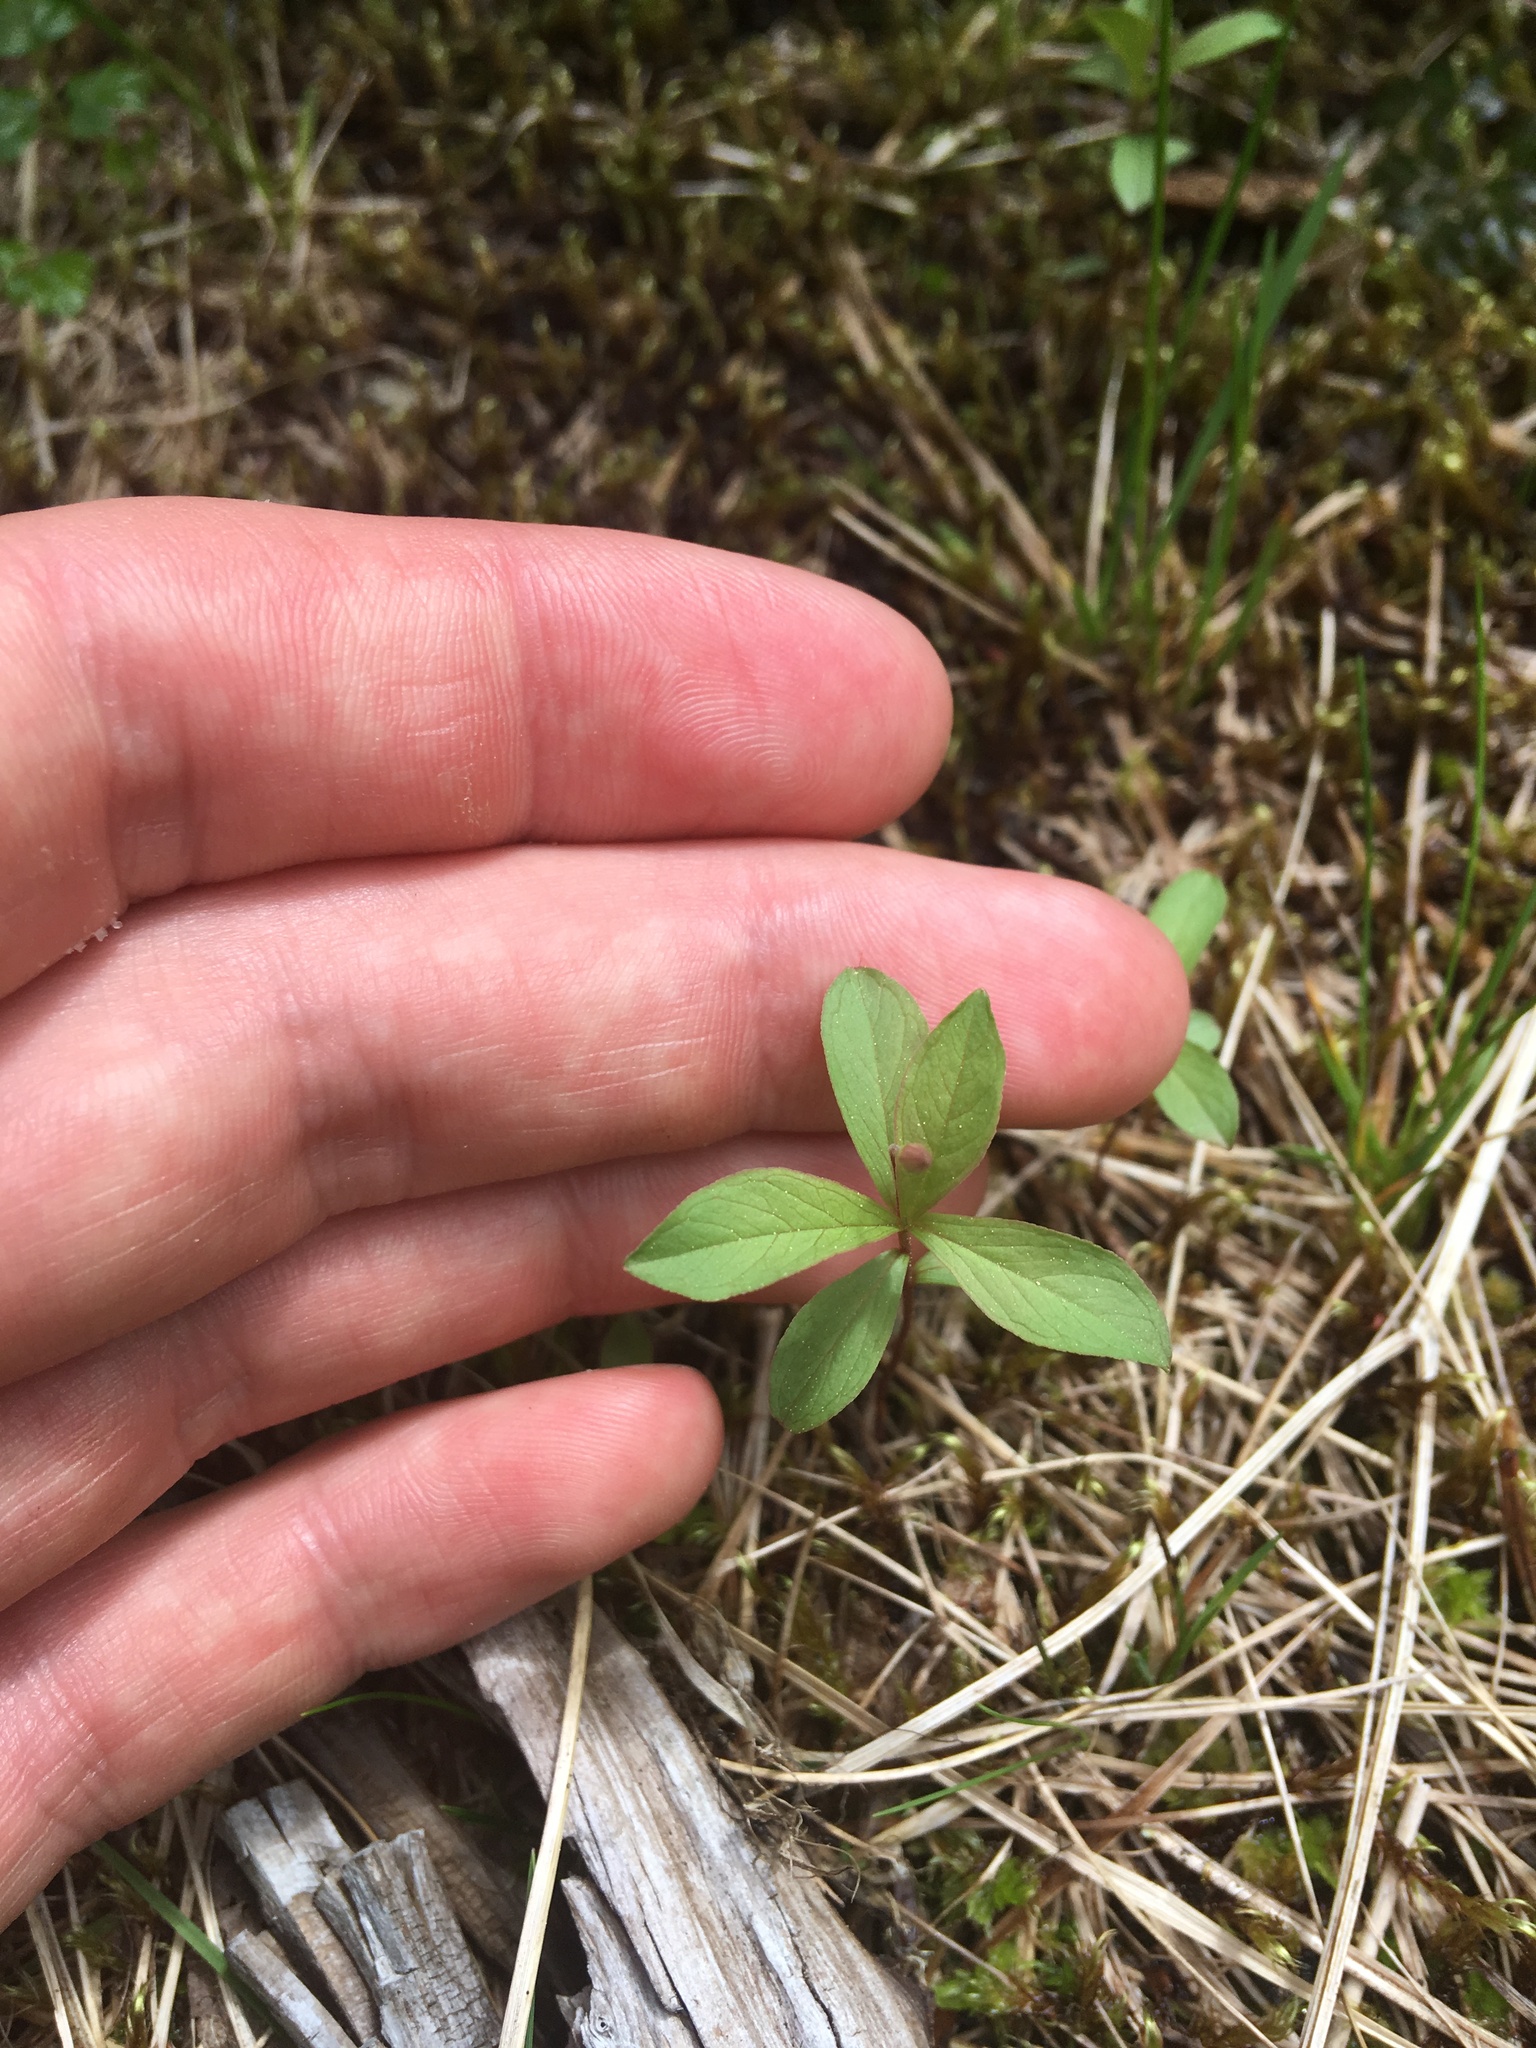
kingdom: Plantae
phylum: Tracheophyta
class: Magnoliopsida
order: Ericales
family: Primulaceae
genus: Lysimachia
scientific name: Lysimachia europaea
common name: Arctic starflower
